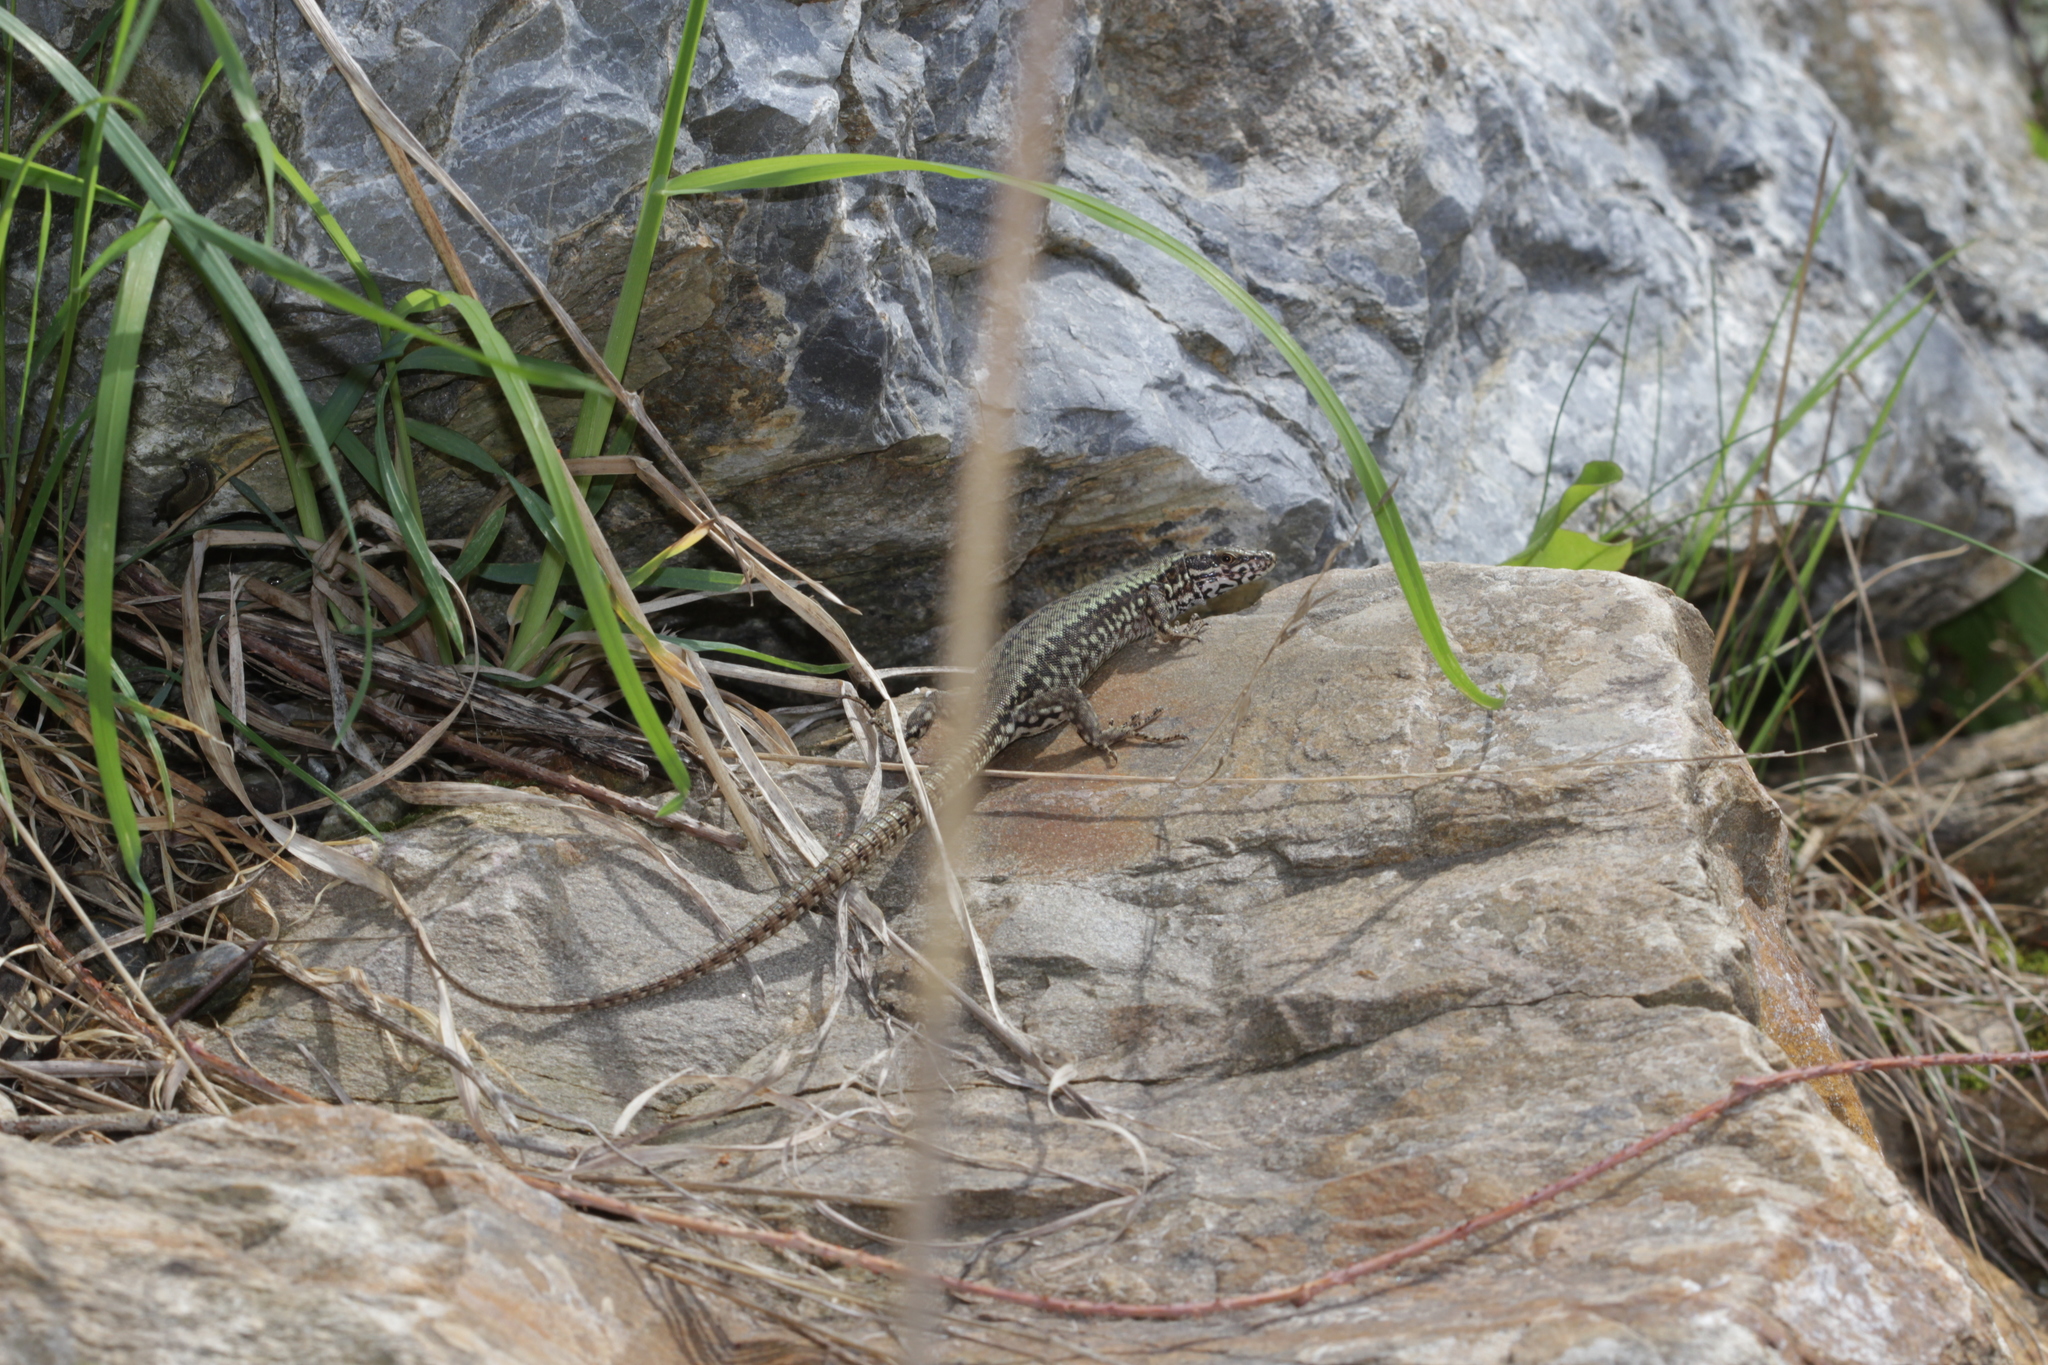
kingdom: Animalia
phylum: Chordata
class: Squamata
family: Lacertidae
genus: Podarcis
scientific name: Podarcis muralis
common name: Common wall lizard
